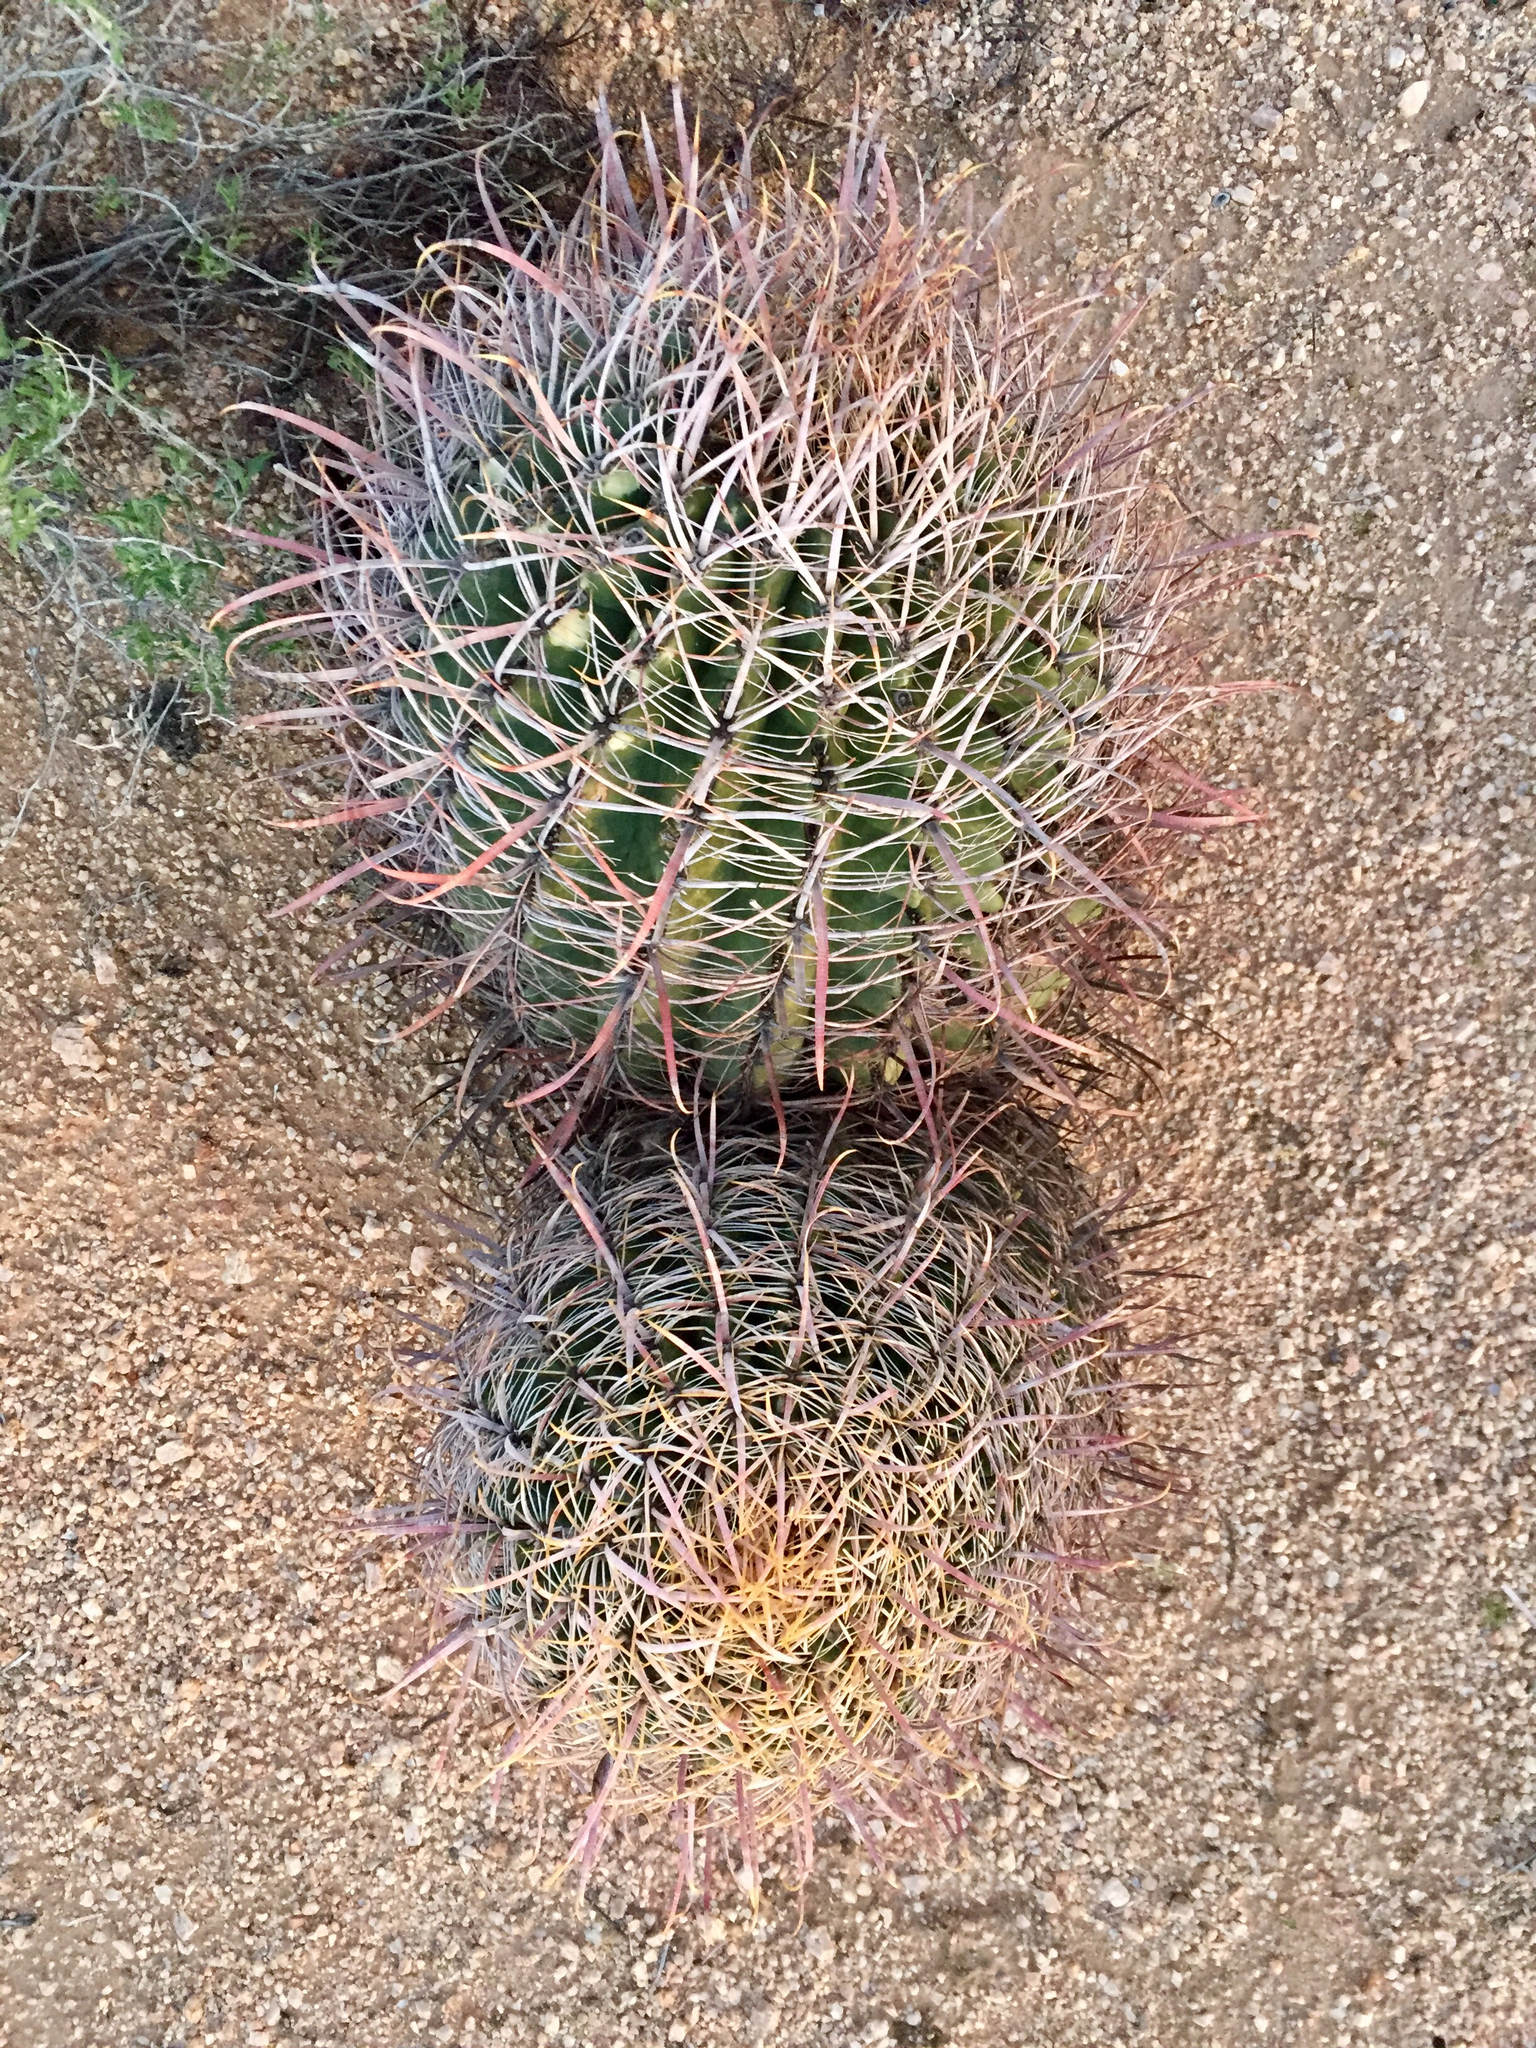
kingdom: Plantae
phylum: Tracheophyta
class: Magnoliopsida
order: Caryophyllales
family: Cactaceae
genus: Ferocactus
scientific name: Ferocactus cylindraceus
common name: California barrel cactus
